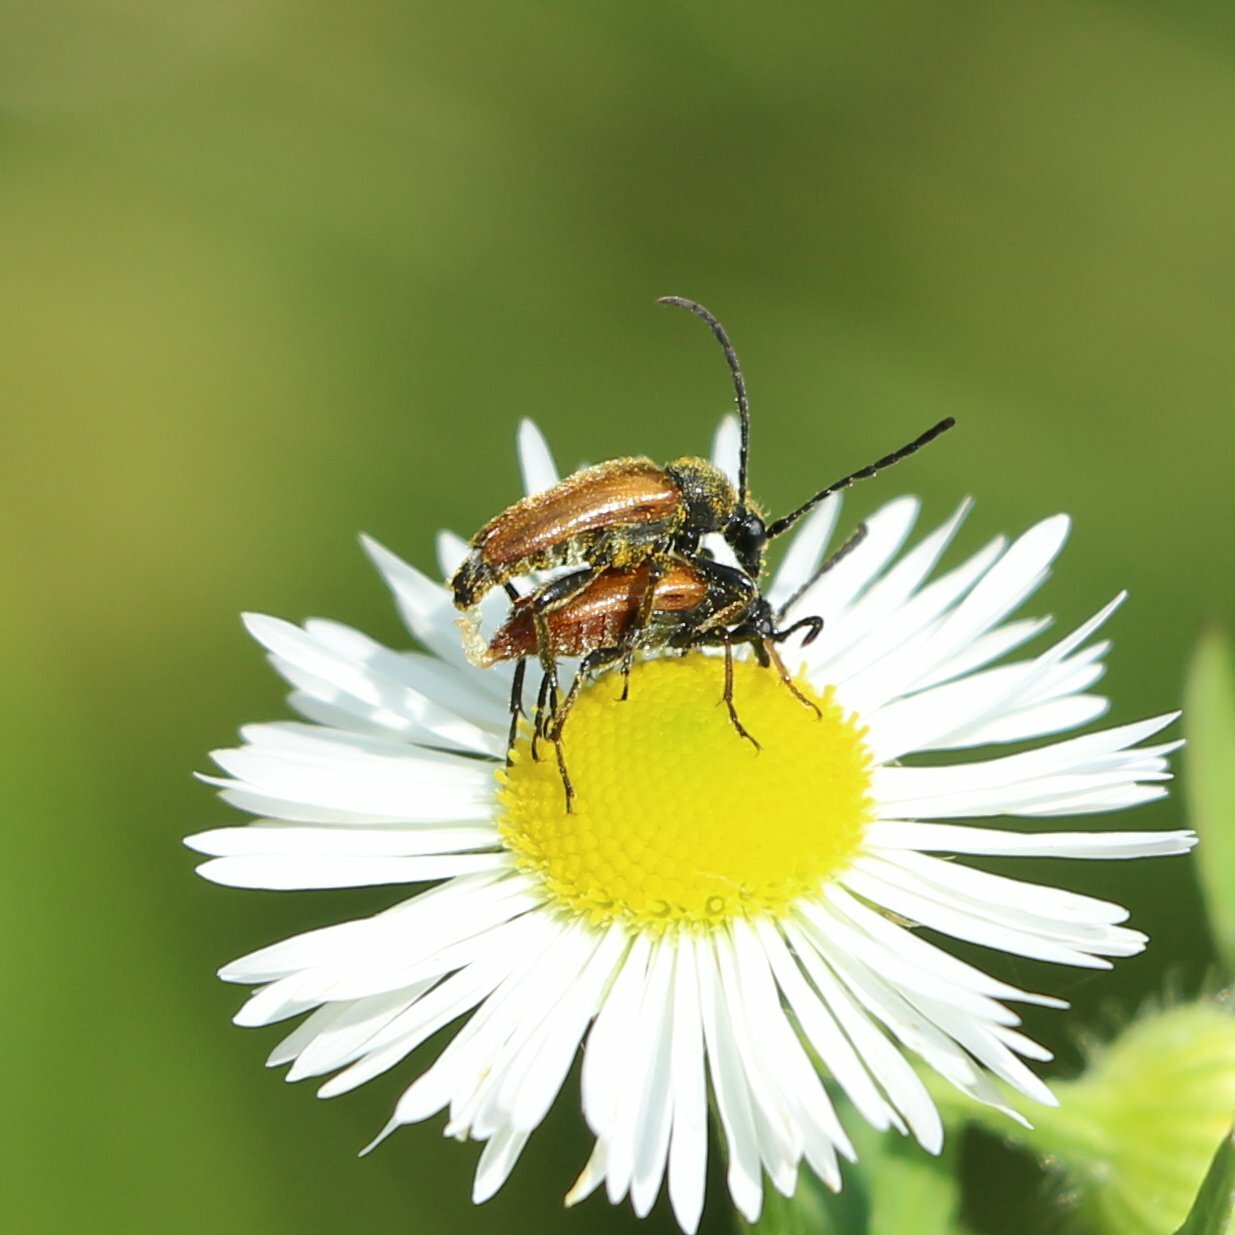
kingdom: Animalia
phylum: Arthropoda
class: Insecta
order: Coleoptera
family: Cerambycidae
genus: Pseudovadonia
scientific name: Pseudovadonia livida
